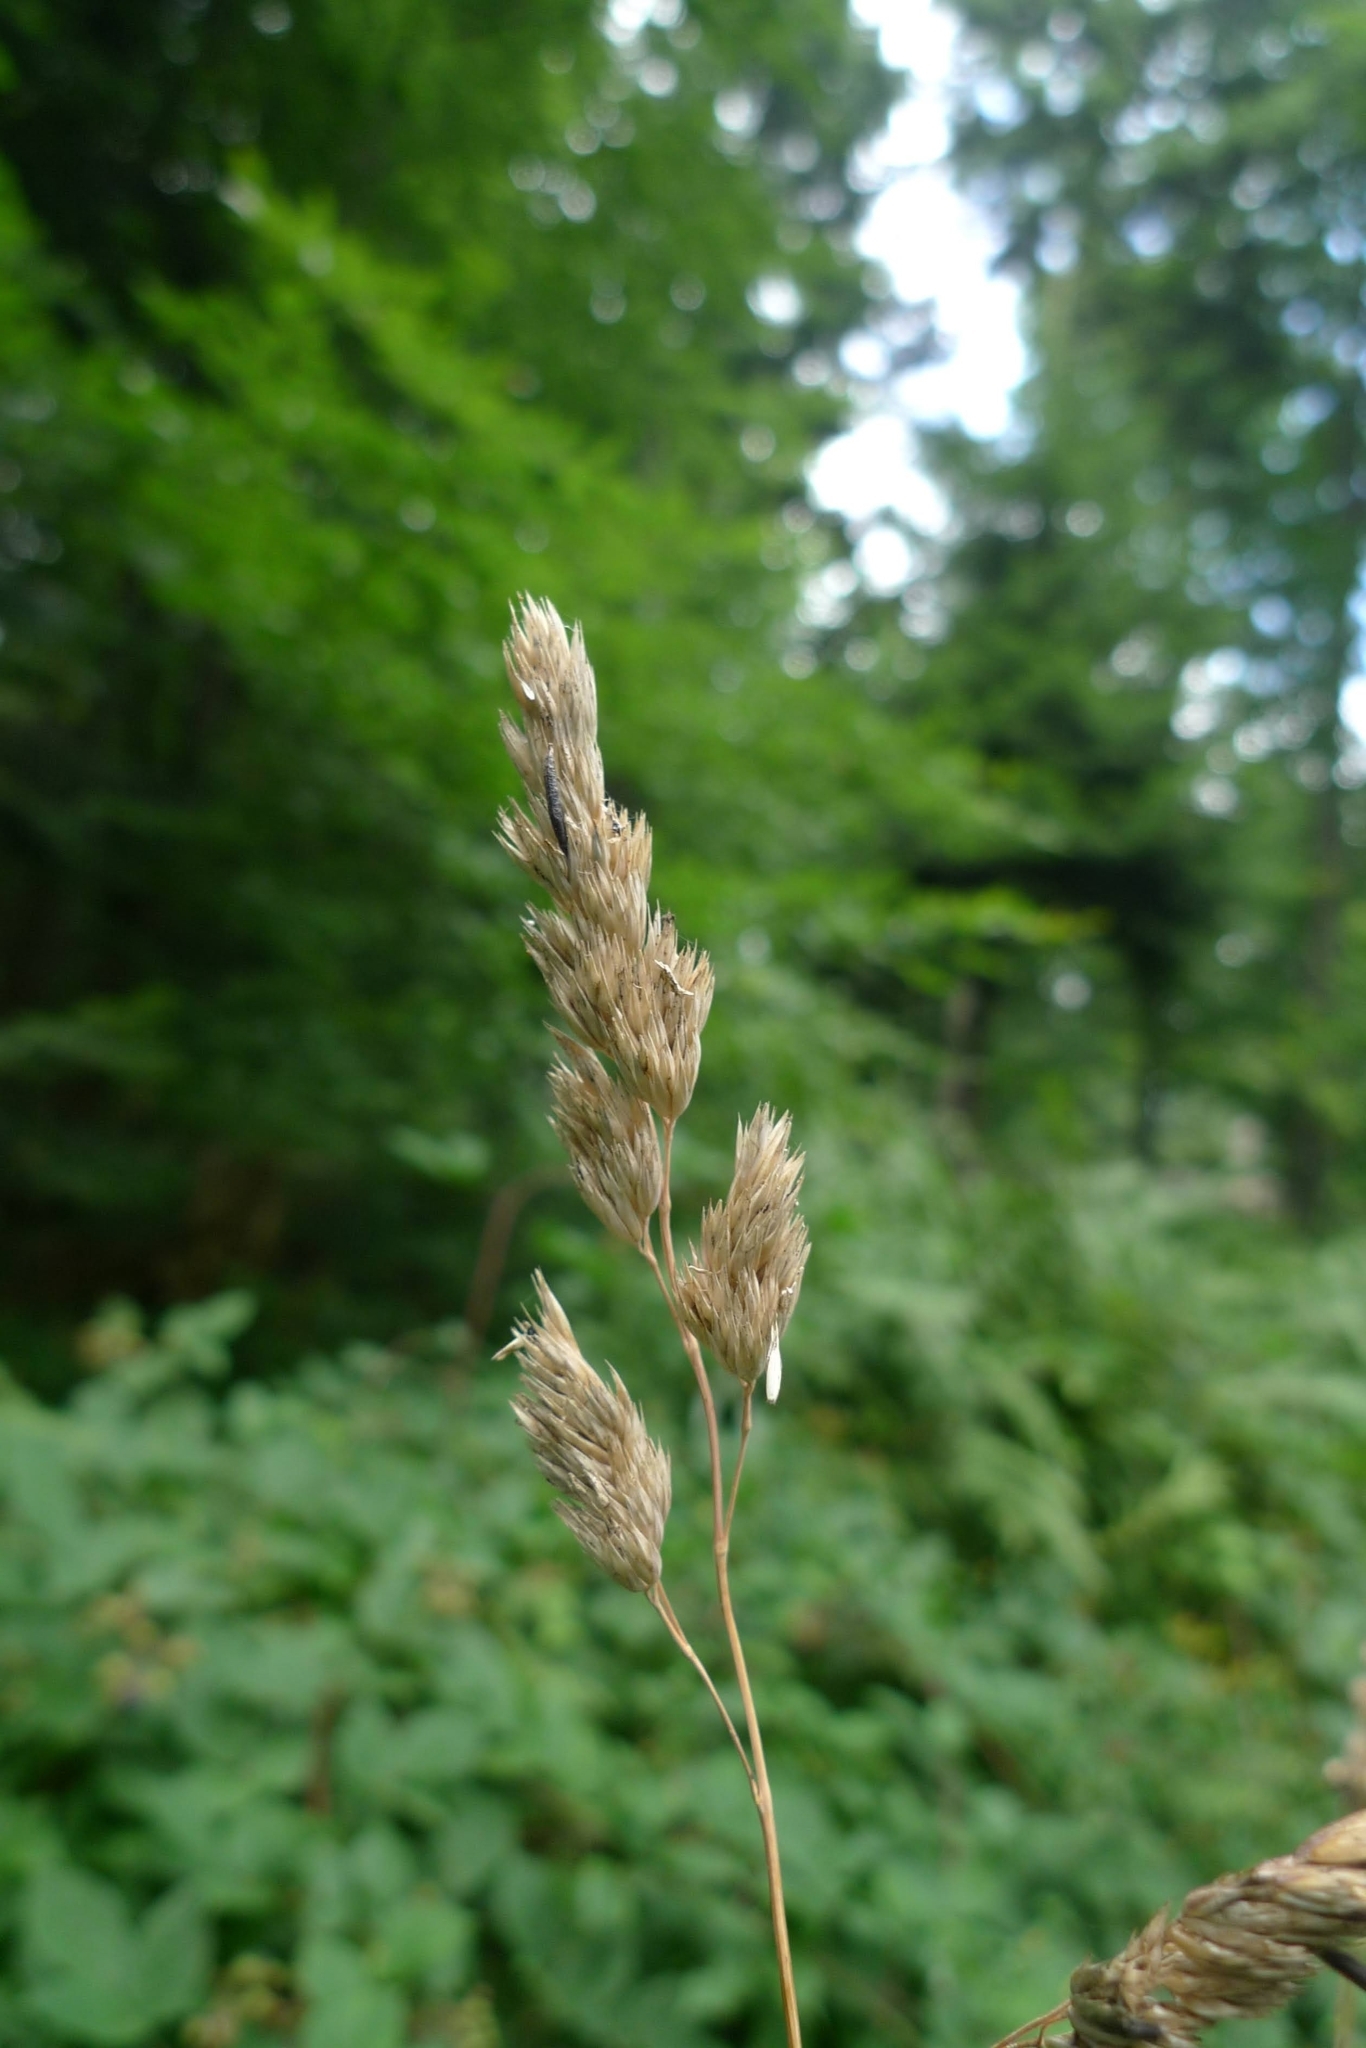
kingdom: Plantae
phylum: Tracheophyta
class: Liliopsida
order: Poales
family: Poaceae
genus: Dactylis
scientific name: Dactylis glomerata
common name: Orchardgrass
